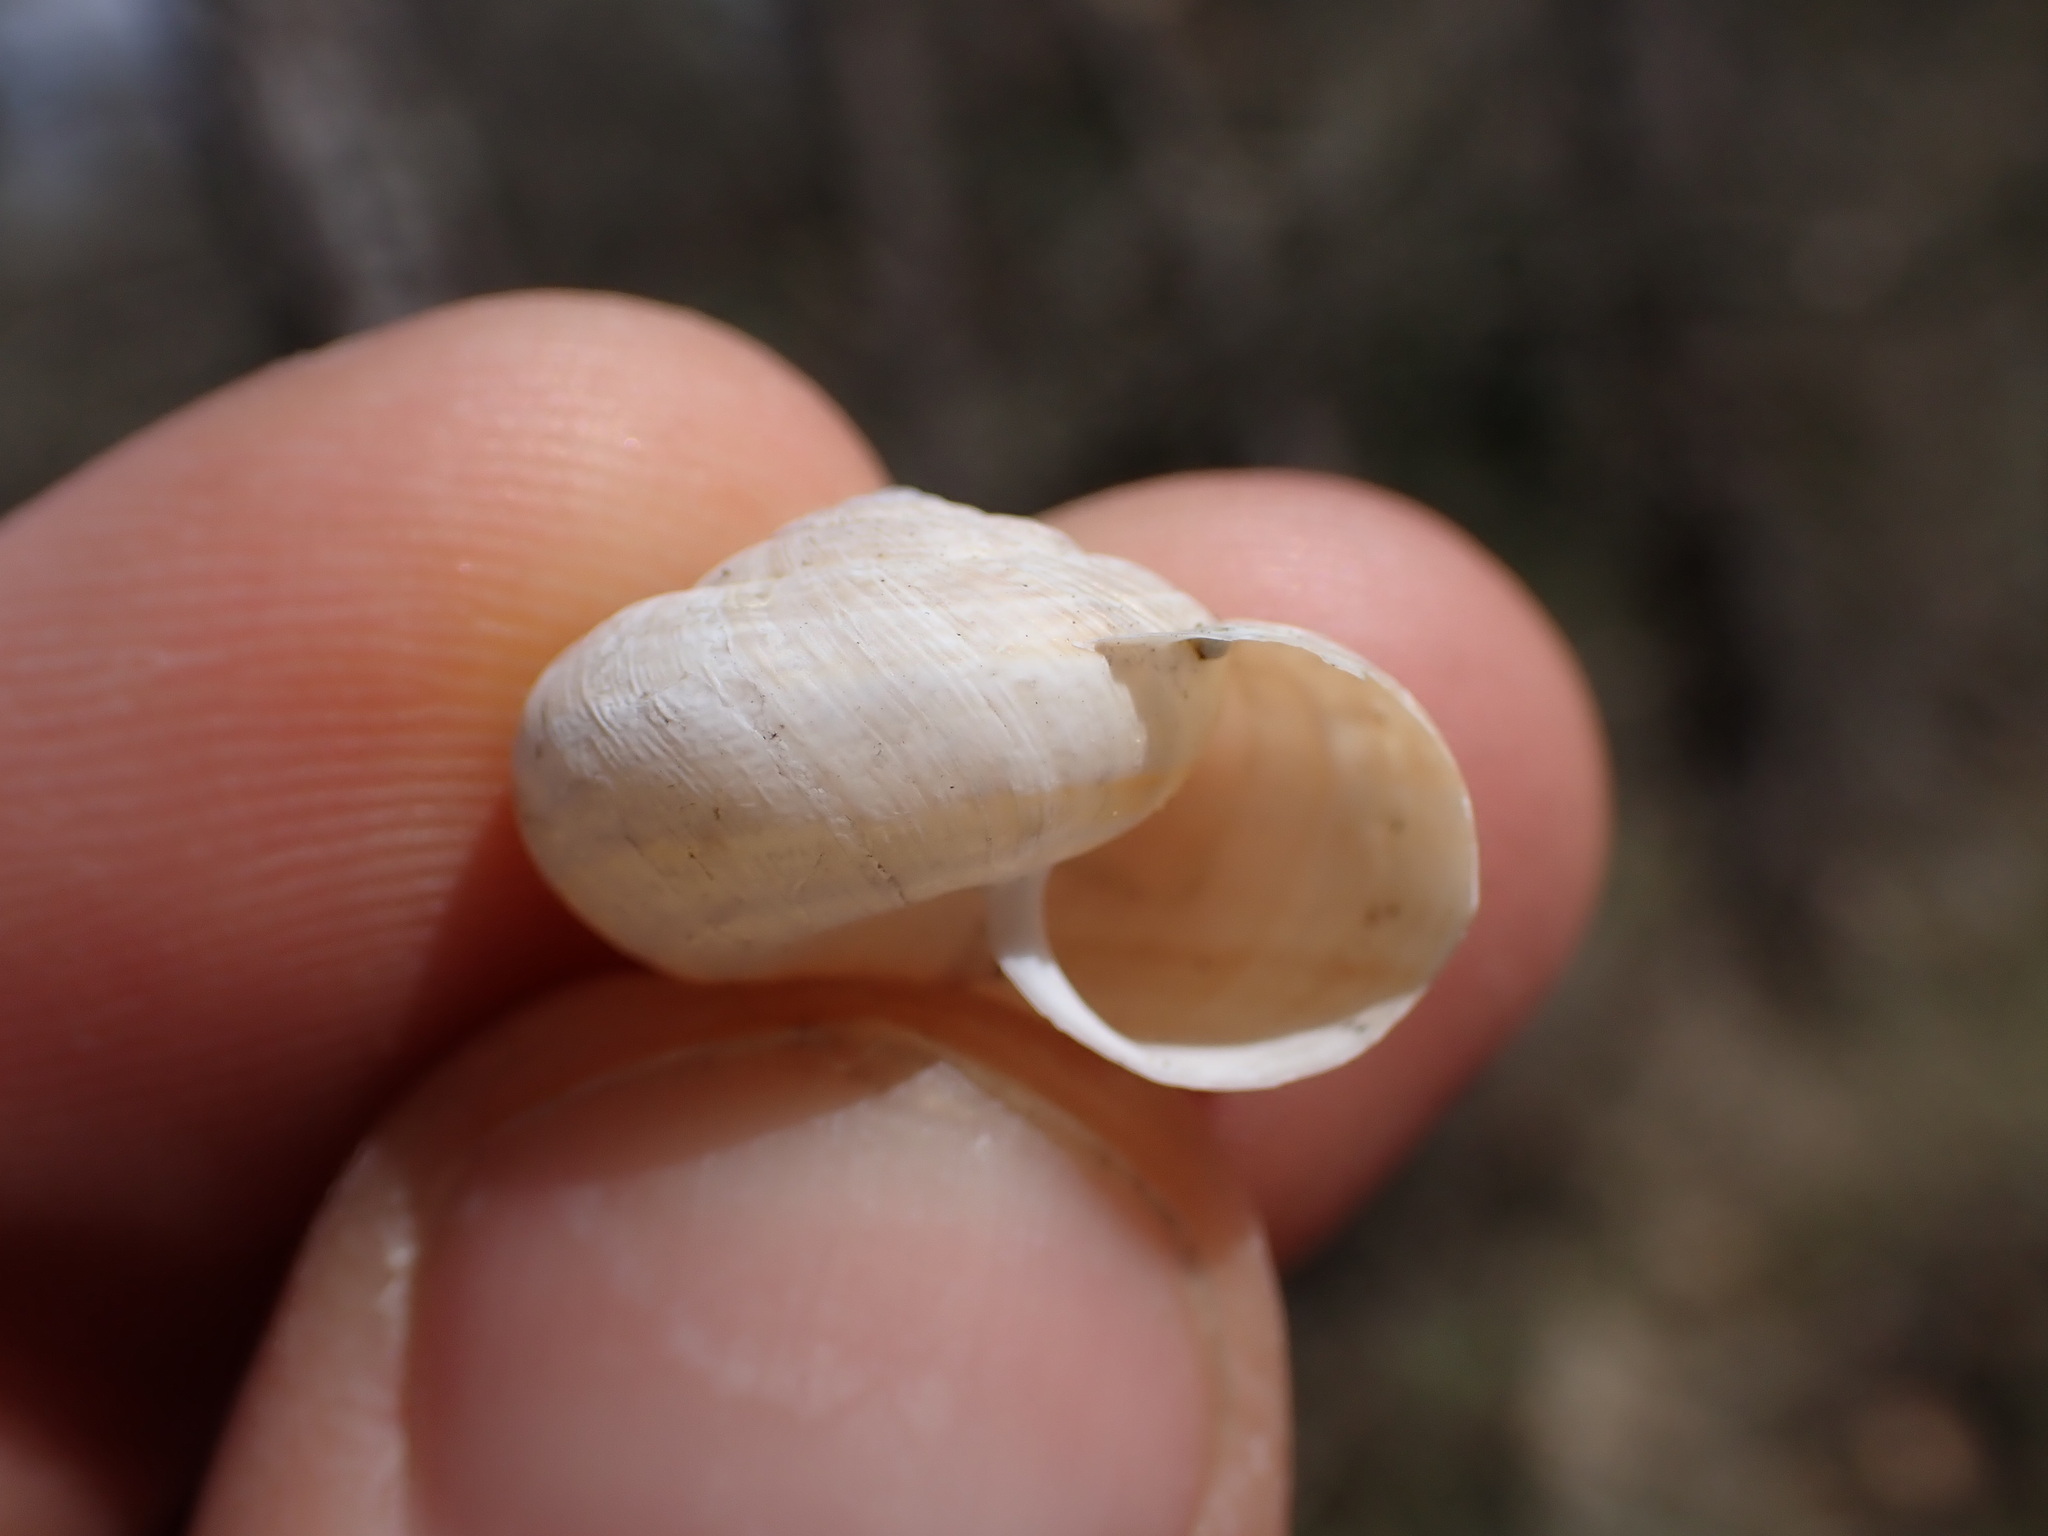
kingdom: Animalia
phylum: Mollusca
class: Gastropoda
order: Stylommatophora
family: Geomitridae
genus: Xerosecta
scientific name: Xerosecta cespitum
